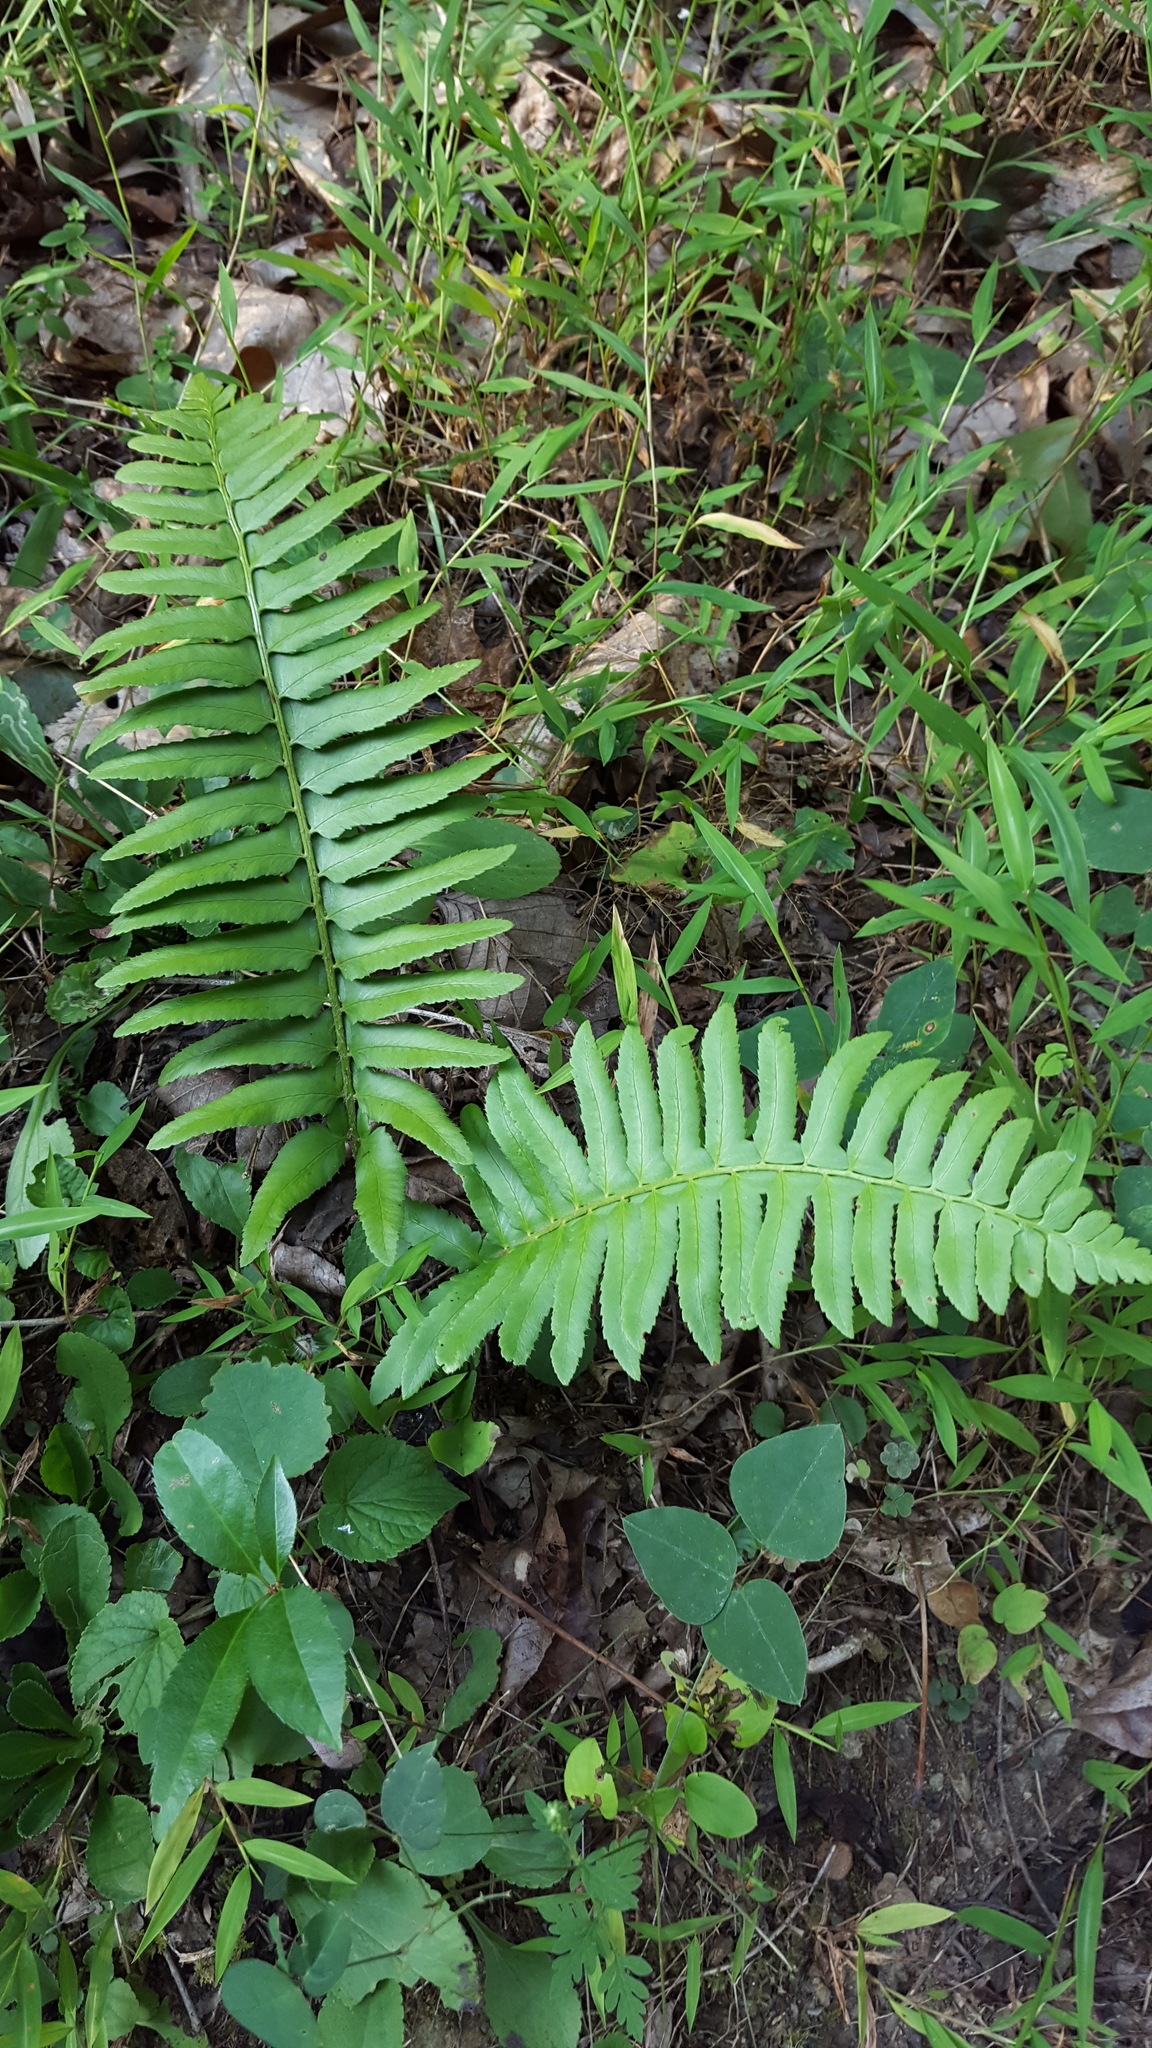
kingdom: Plantae
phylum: Tracheophyta
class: Polypodiopsida
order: Polypodiales
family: Dryopteridaceae
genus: Polystichum
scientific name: Polystichum acrostichoides
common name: Christmas fern
